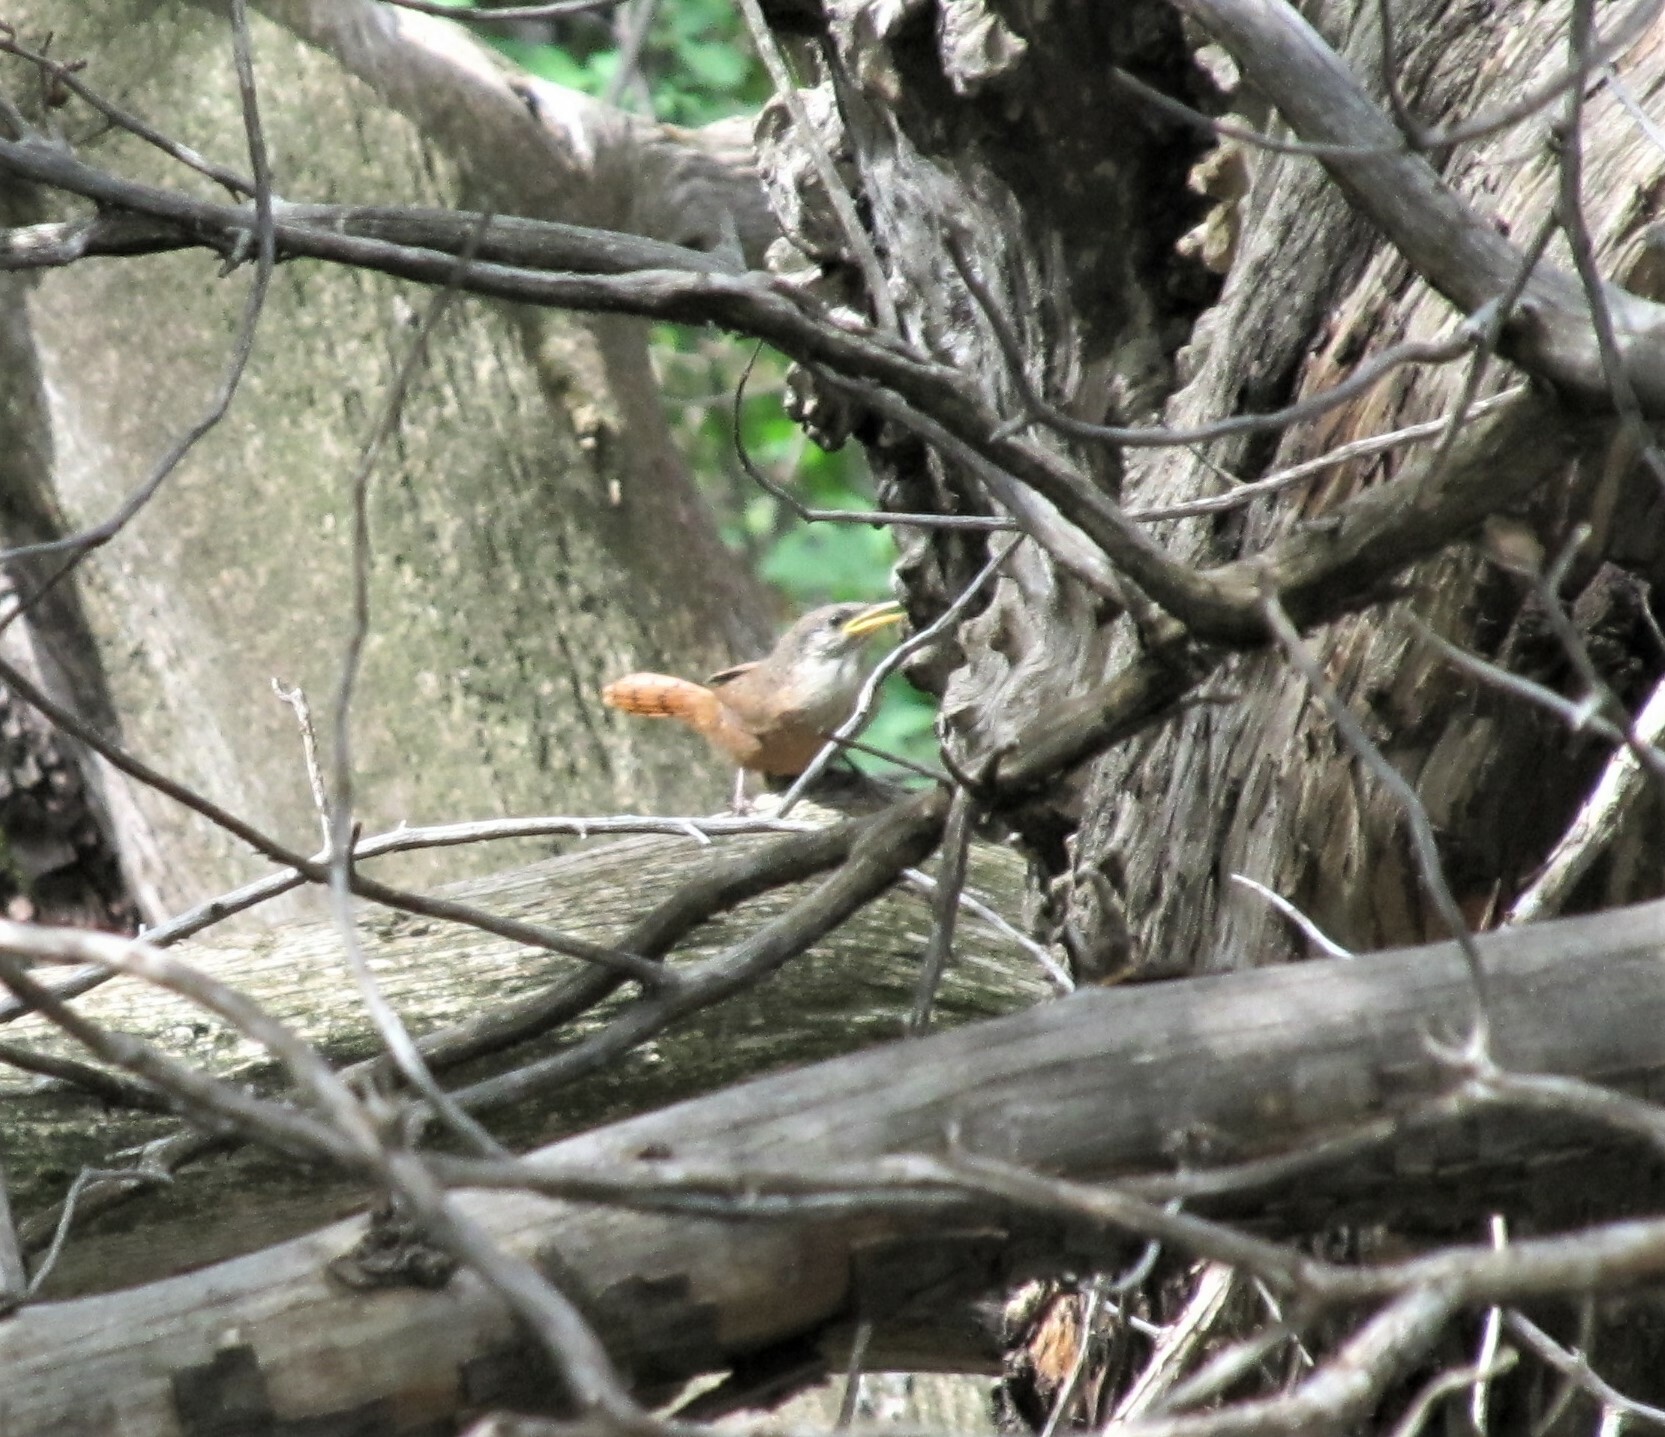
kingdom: Animalia
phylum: Chordata
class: Aves
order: Passeriformes
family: Troglodytidae
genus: Catherpes
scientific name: Catherpes mexicanus
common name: Canyon wren
